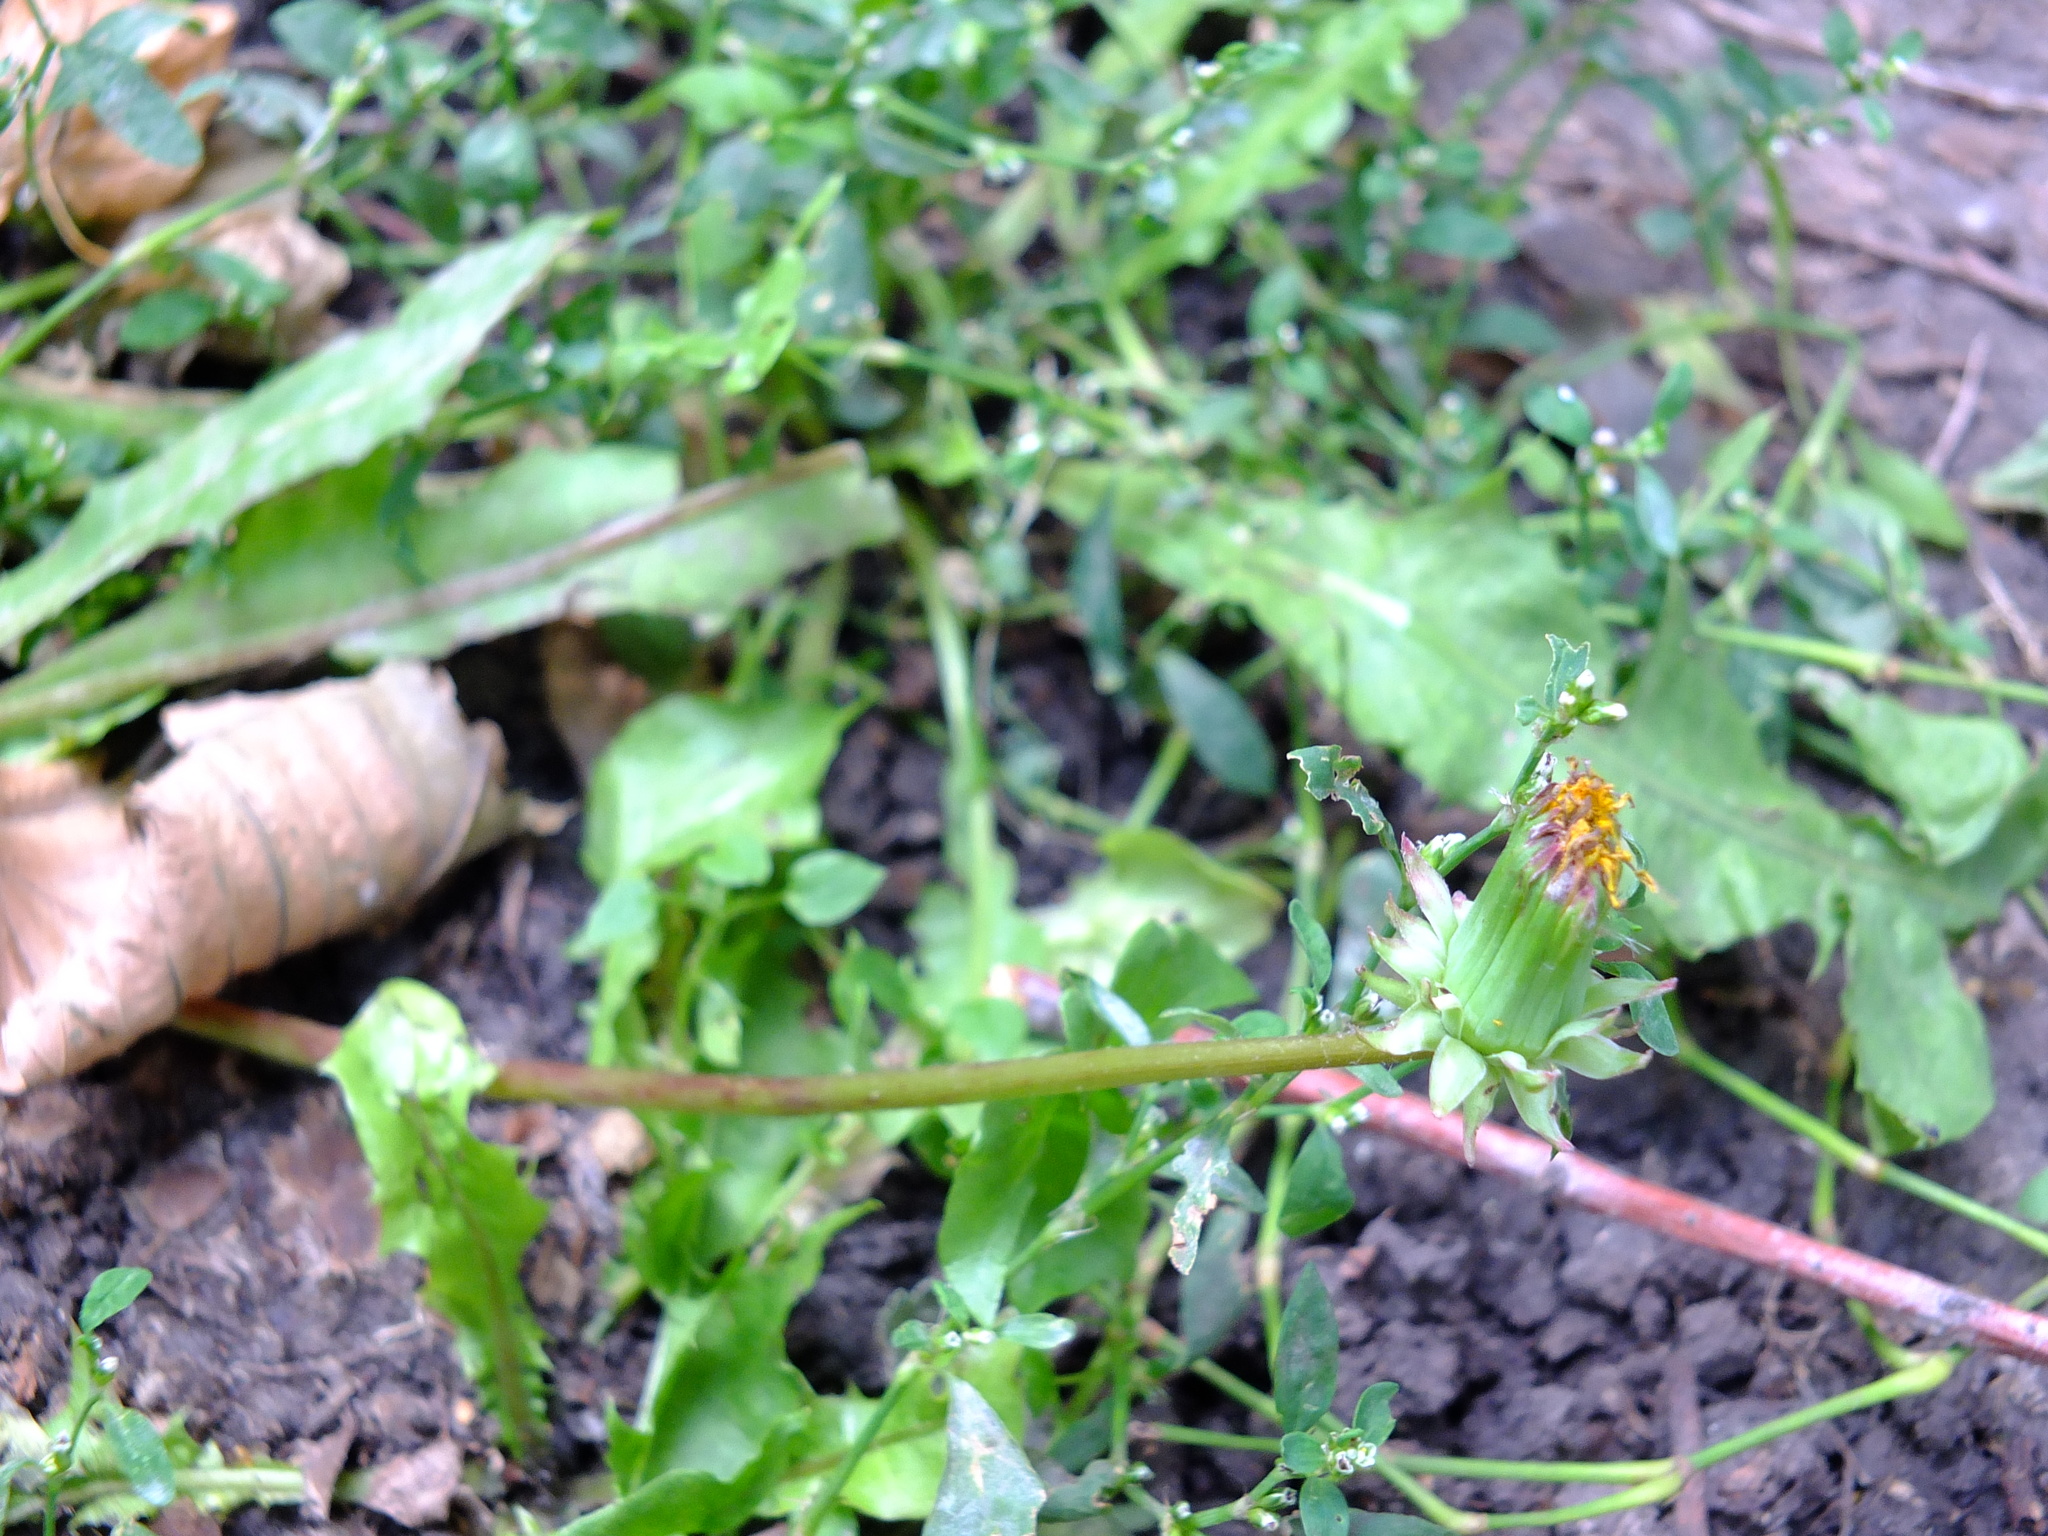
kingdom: Plantae
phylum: Tracheophyta
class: Magnoliopsida
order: Asterales
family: Asteraceae
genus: Taraxacum
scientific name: Taraxacum officinale
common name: Common dandelion
